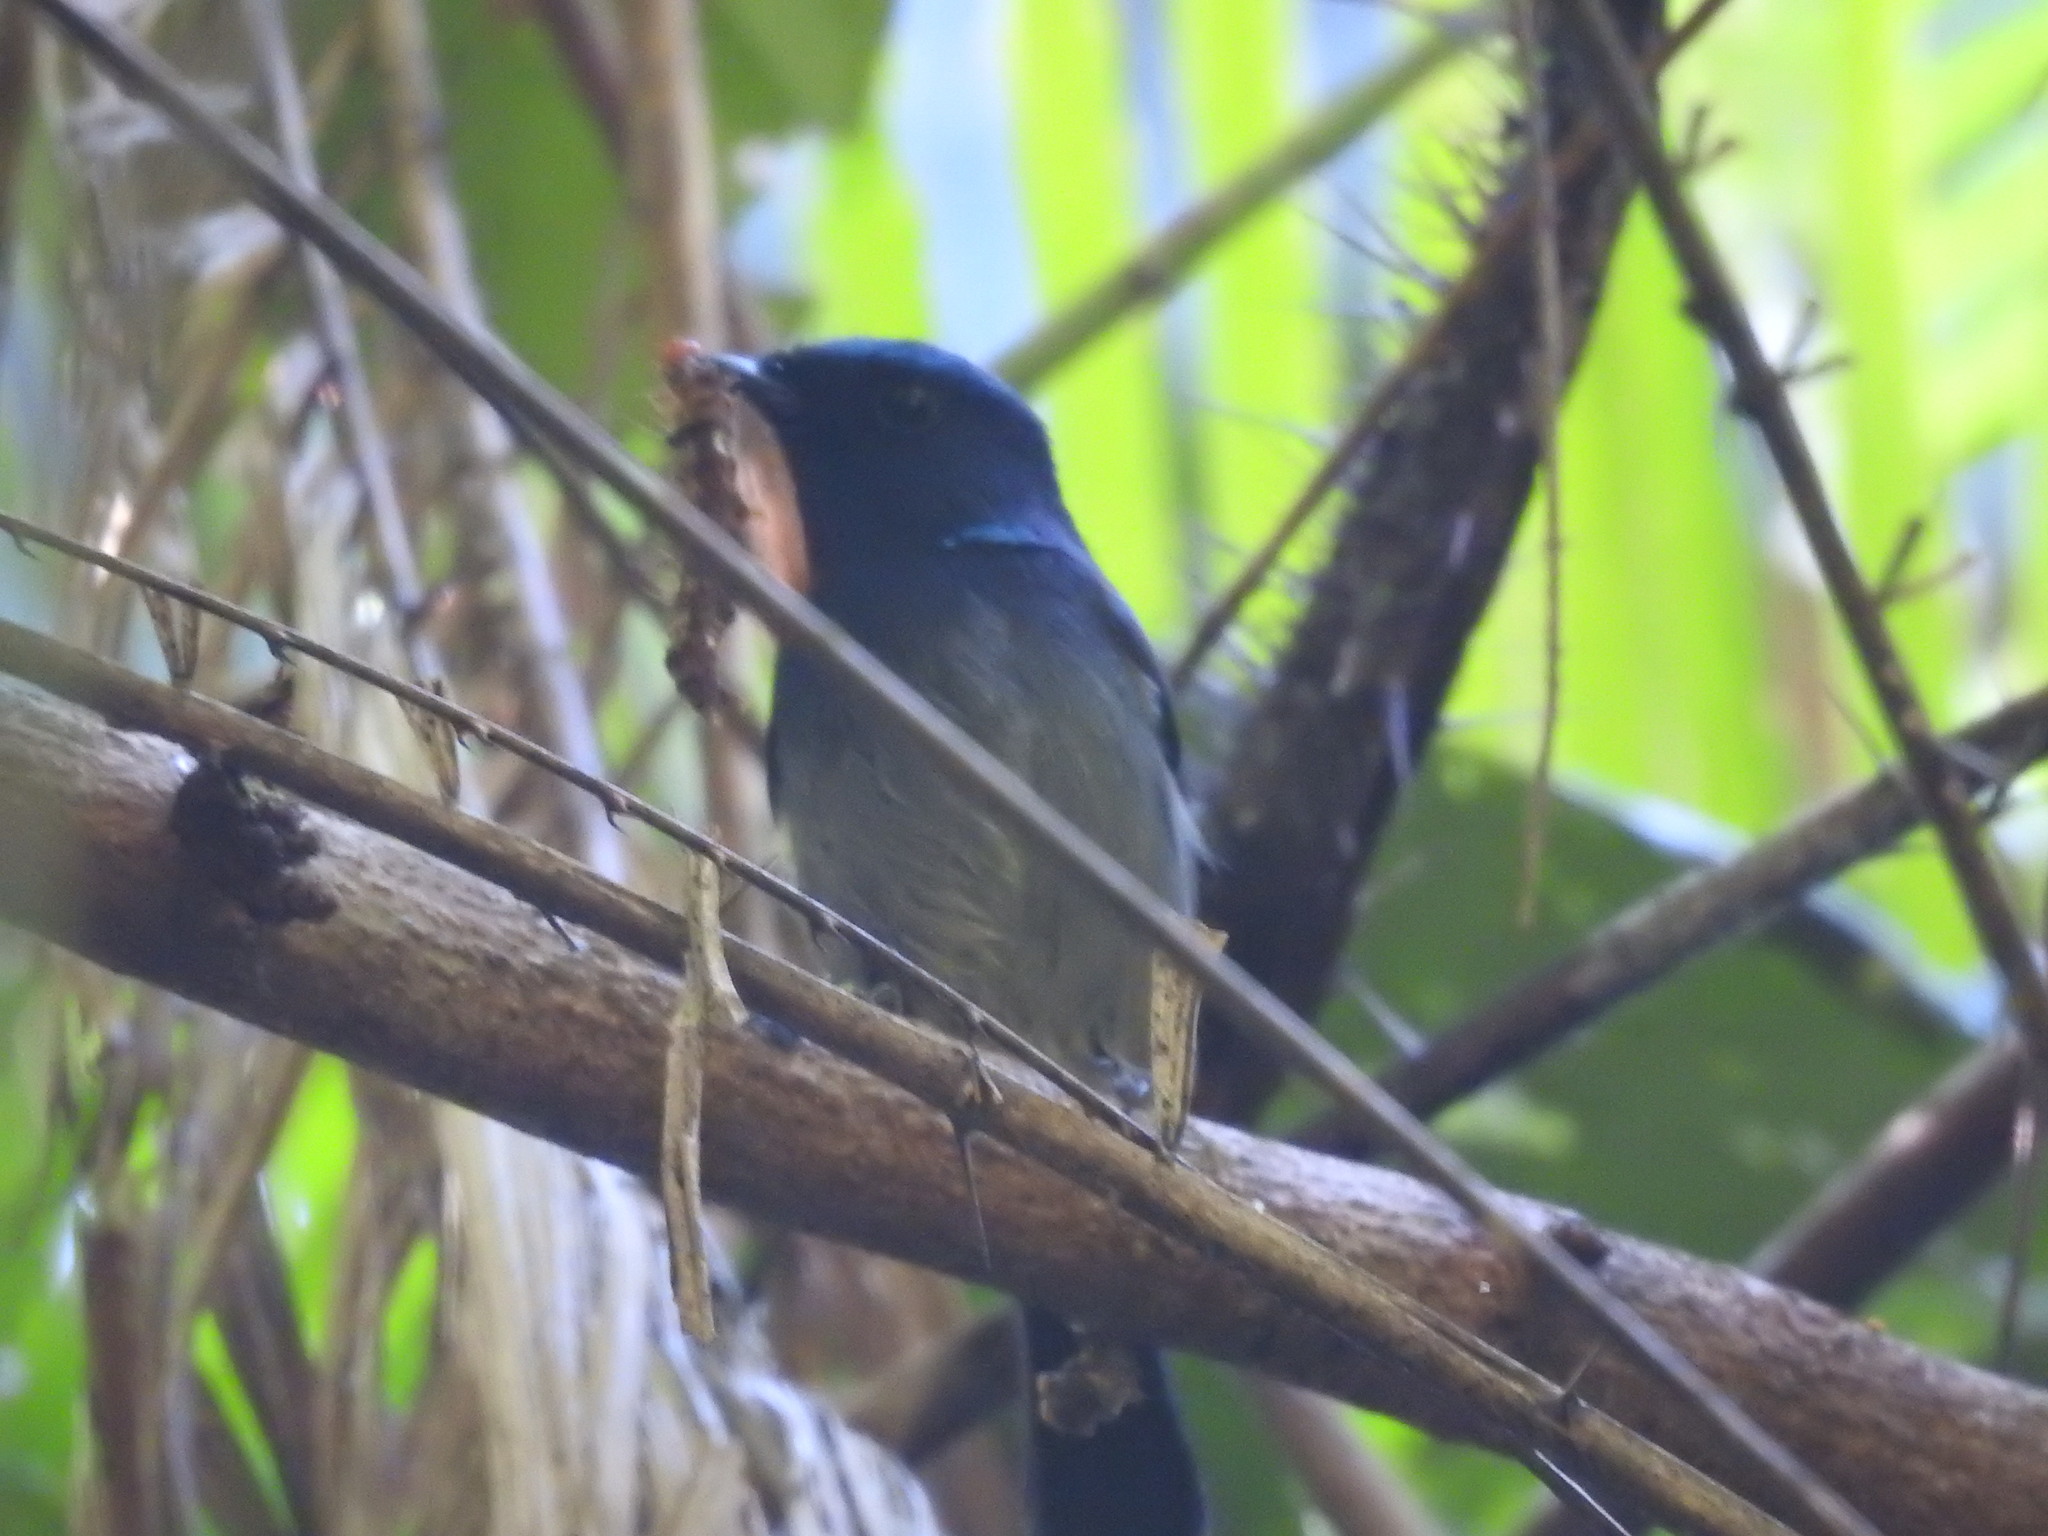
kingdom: Animalia
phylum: Chordata
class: Aves
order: Passeriformes
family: Monarchidae
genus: Hypothymis
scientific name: Hypothymis azurea
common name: Black-naped monarch
